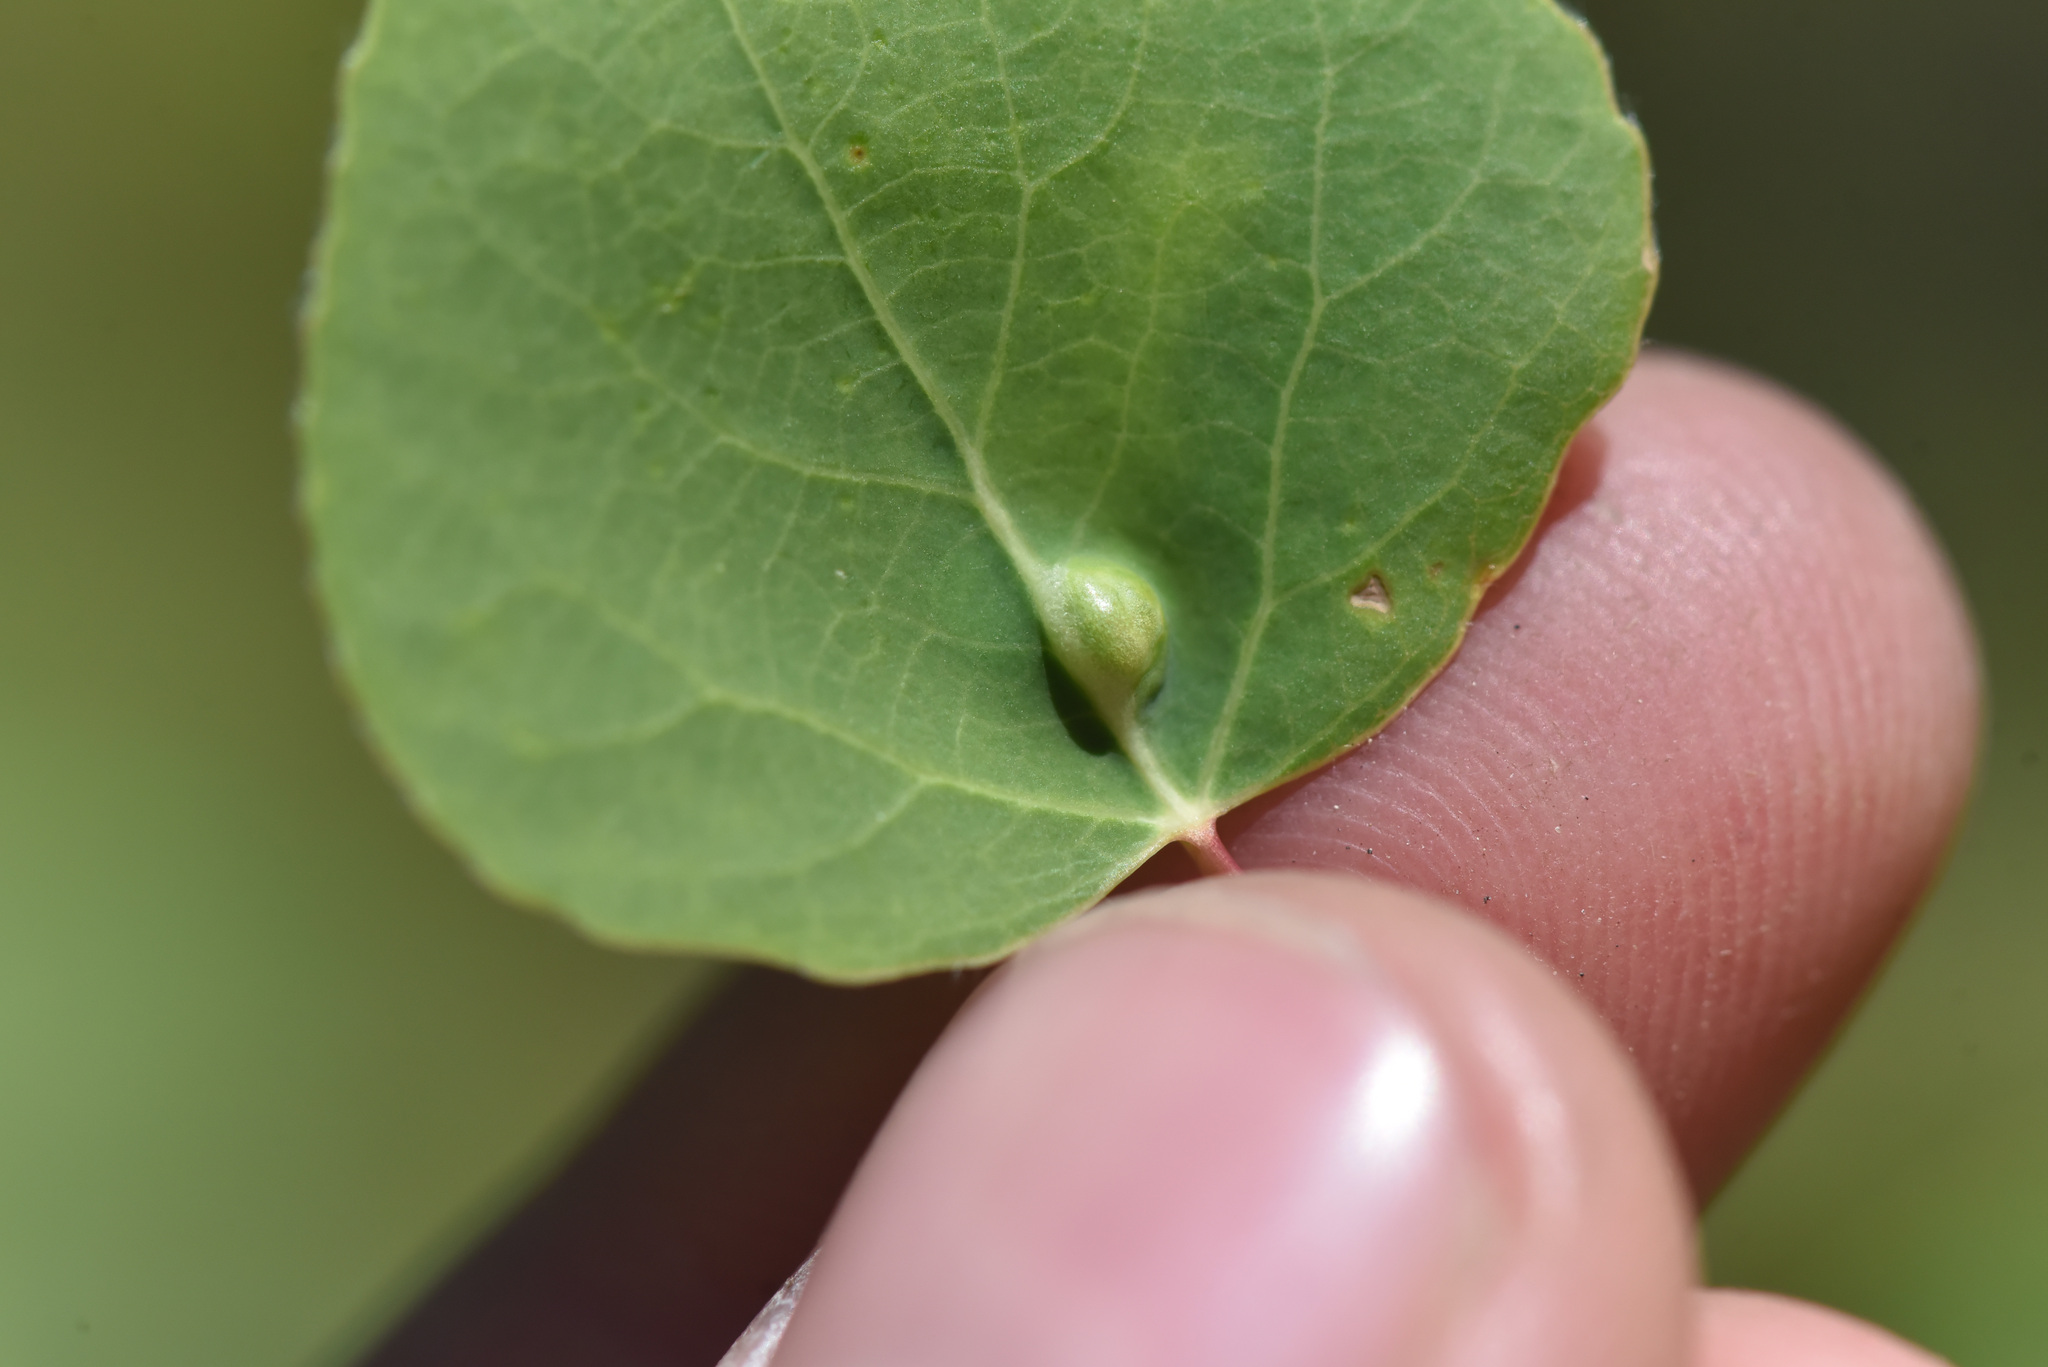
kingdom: Animalia
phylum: Arthropoda
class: Arachnida
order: Trombidiformes
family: Eriophyidae
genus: Phyllocoptes
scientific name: Phyllocoptes
